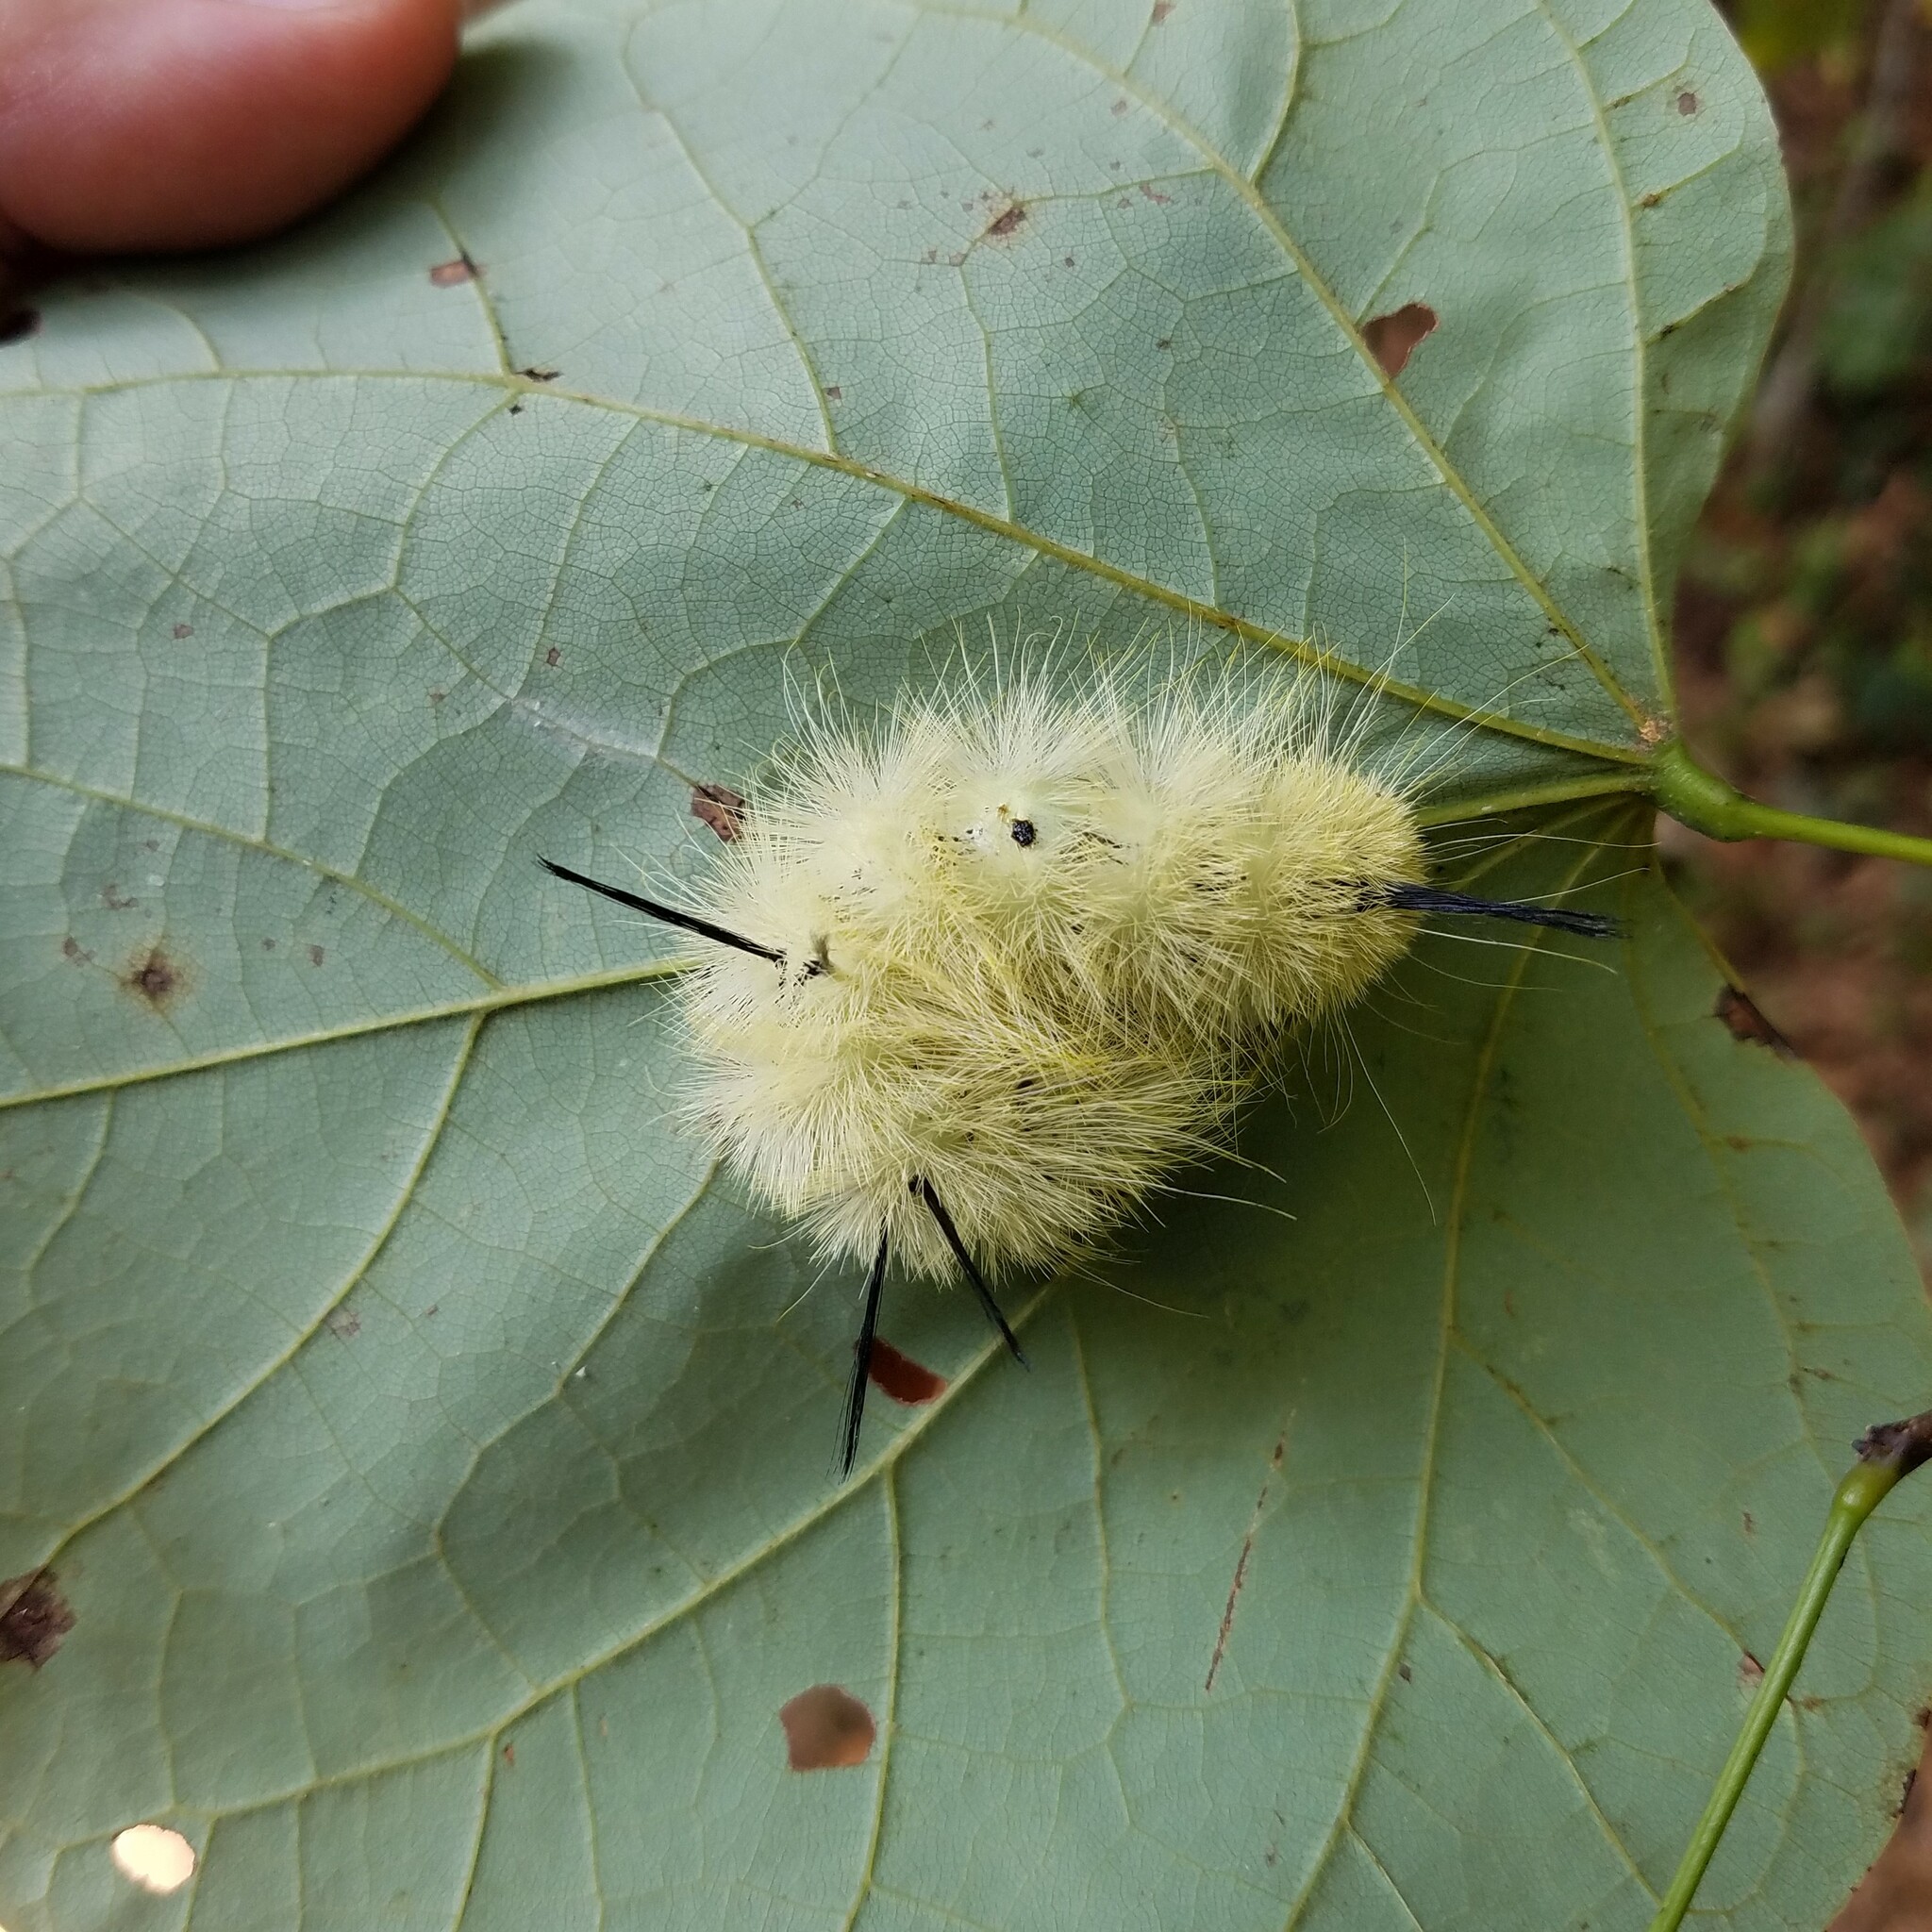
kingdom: Animalia
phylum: Arthropoda
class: Insecta
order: Lepidoptera
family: Noctuidae
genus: Acronicta
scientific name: Acronicta americana
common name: American dagger
